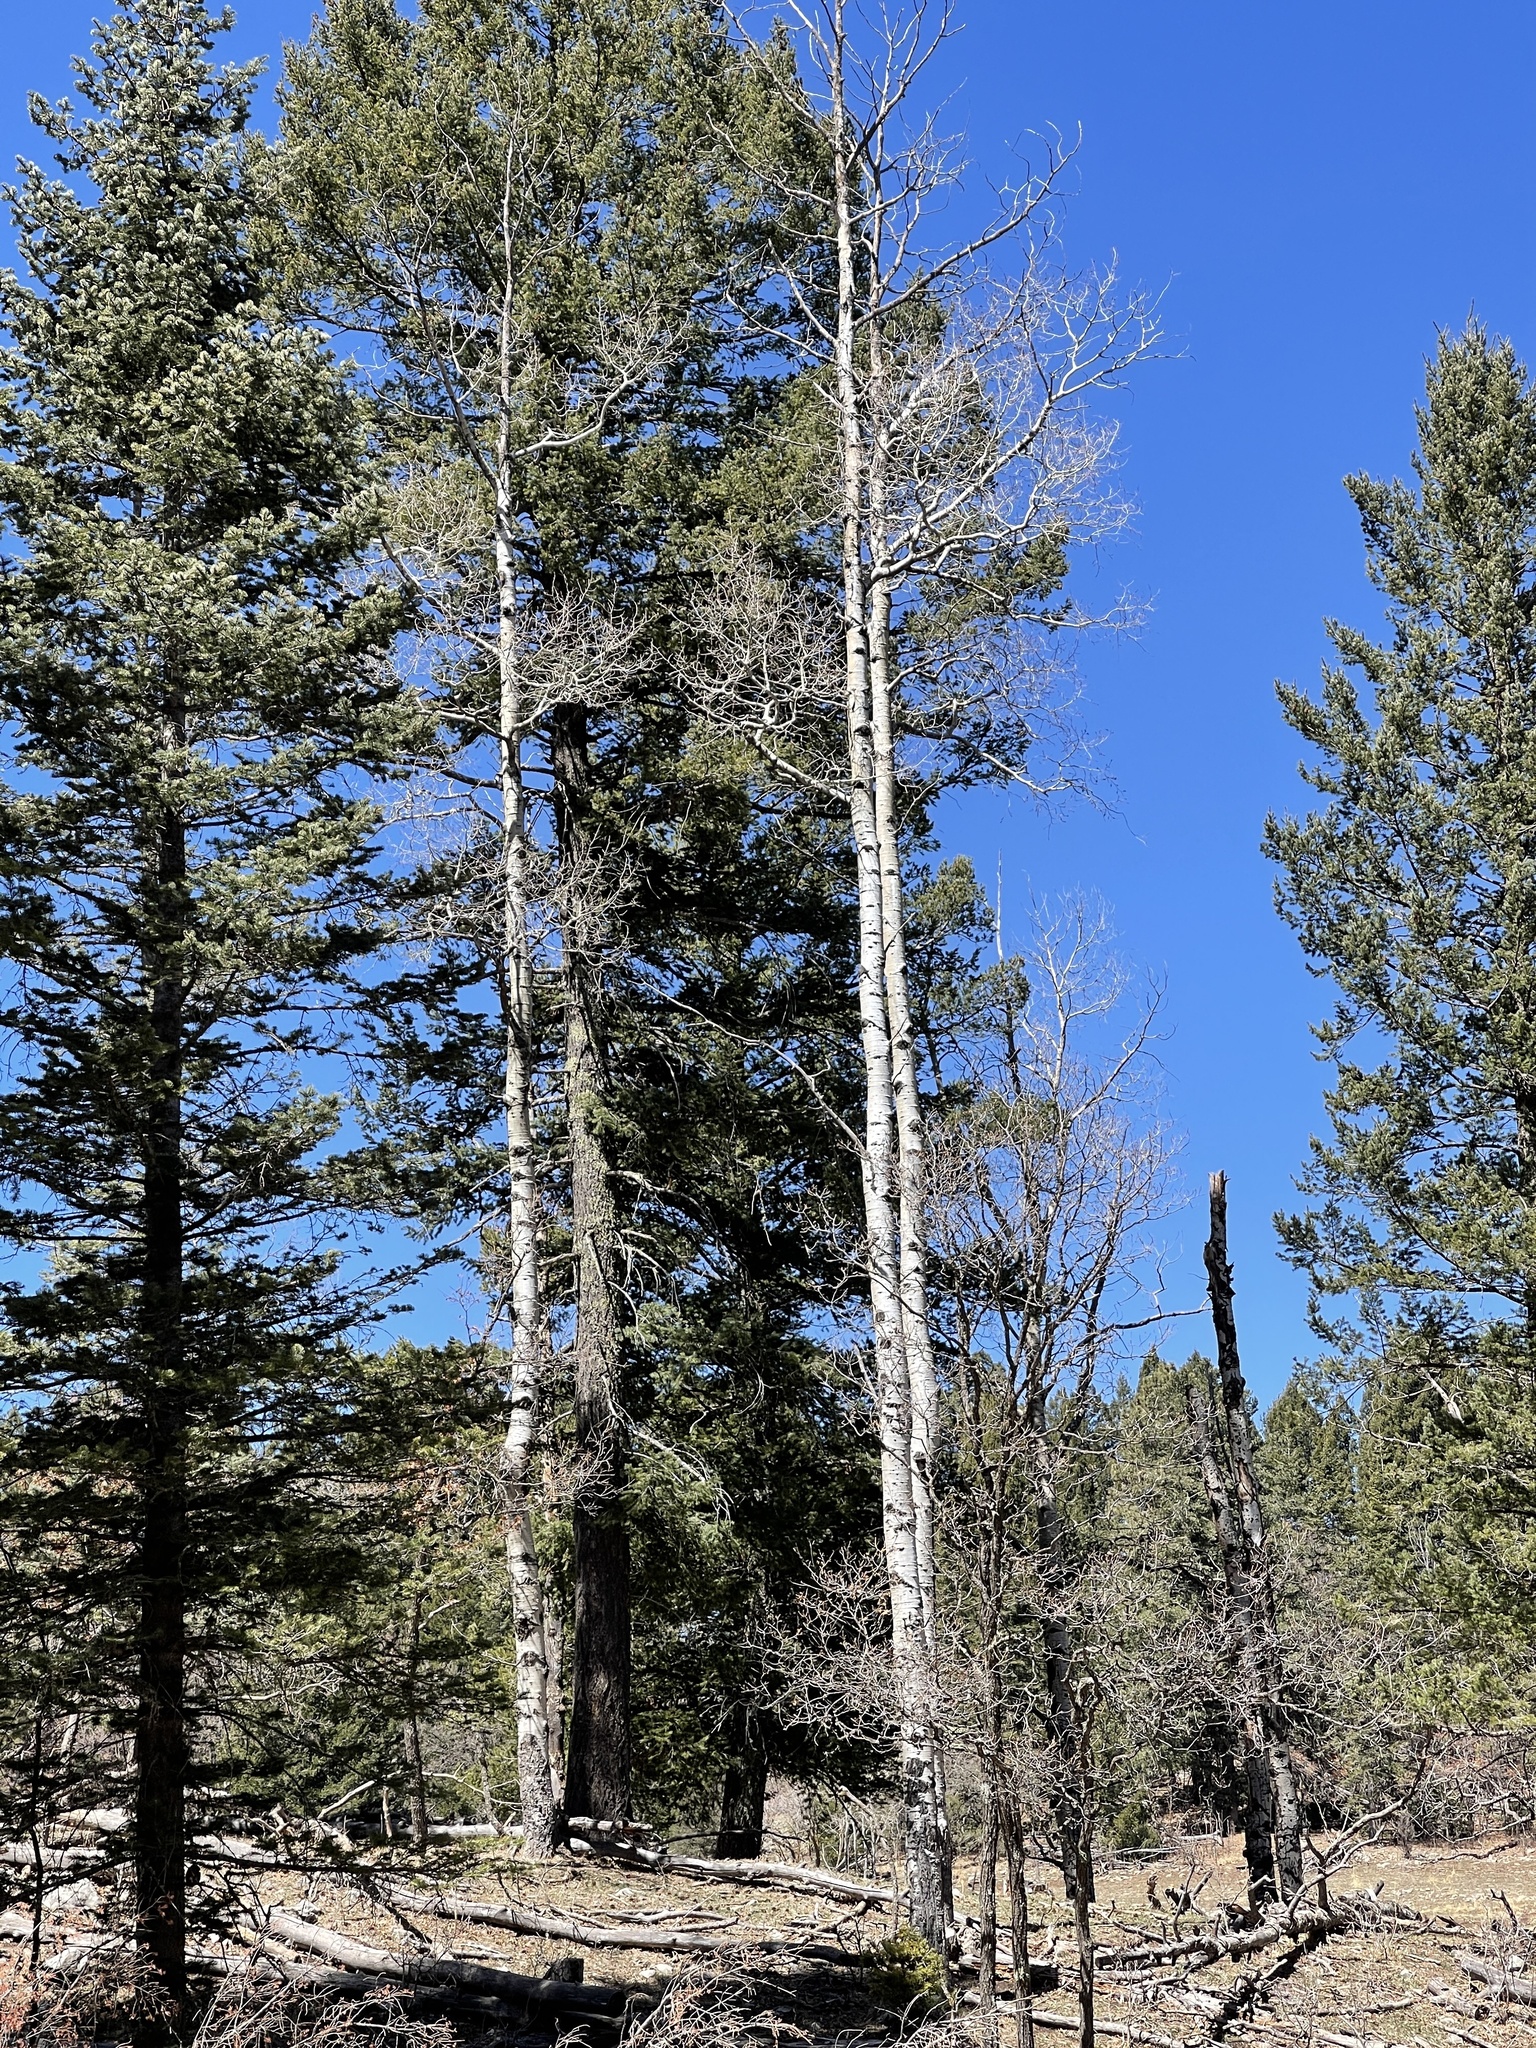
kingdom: Plantae
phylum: Tracheophyta
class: Magnoliopsida
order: Malpighiales
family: Salicaceae
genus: Populus
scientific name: Populus tremuloides
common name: Quaking aspen
